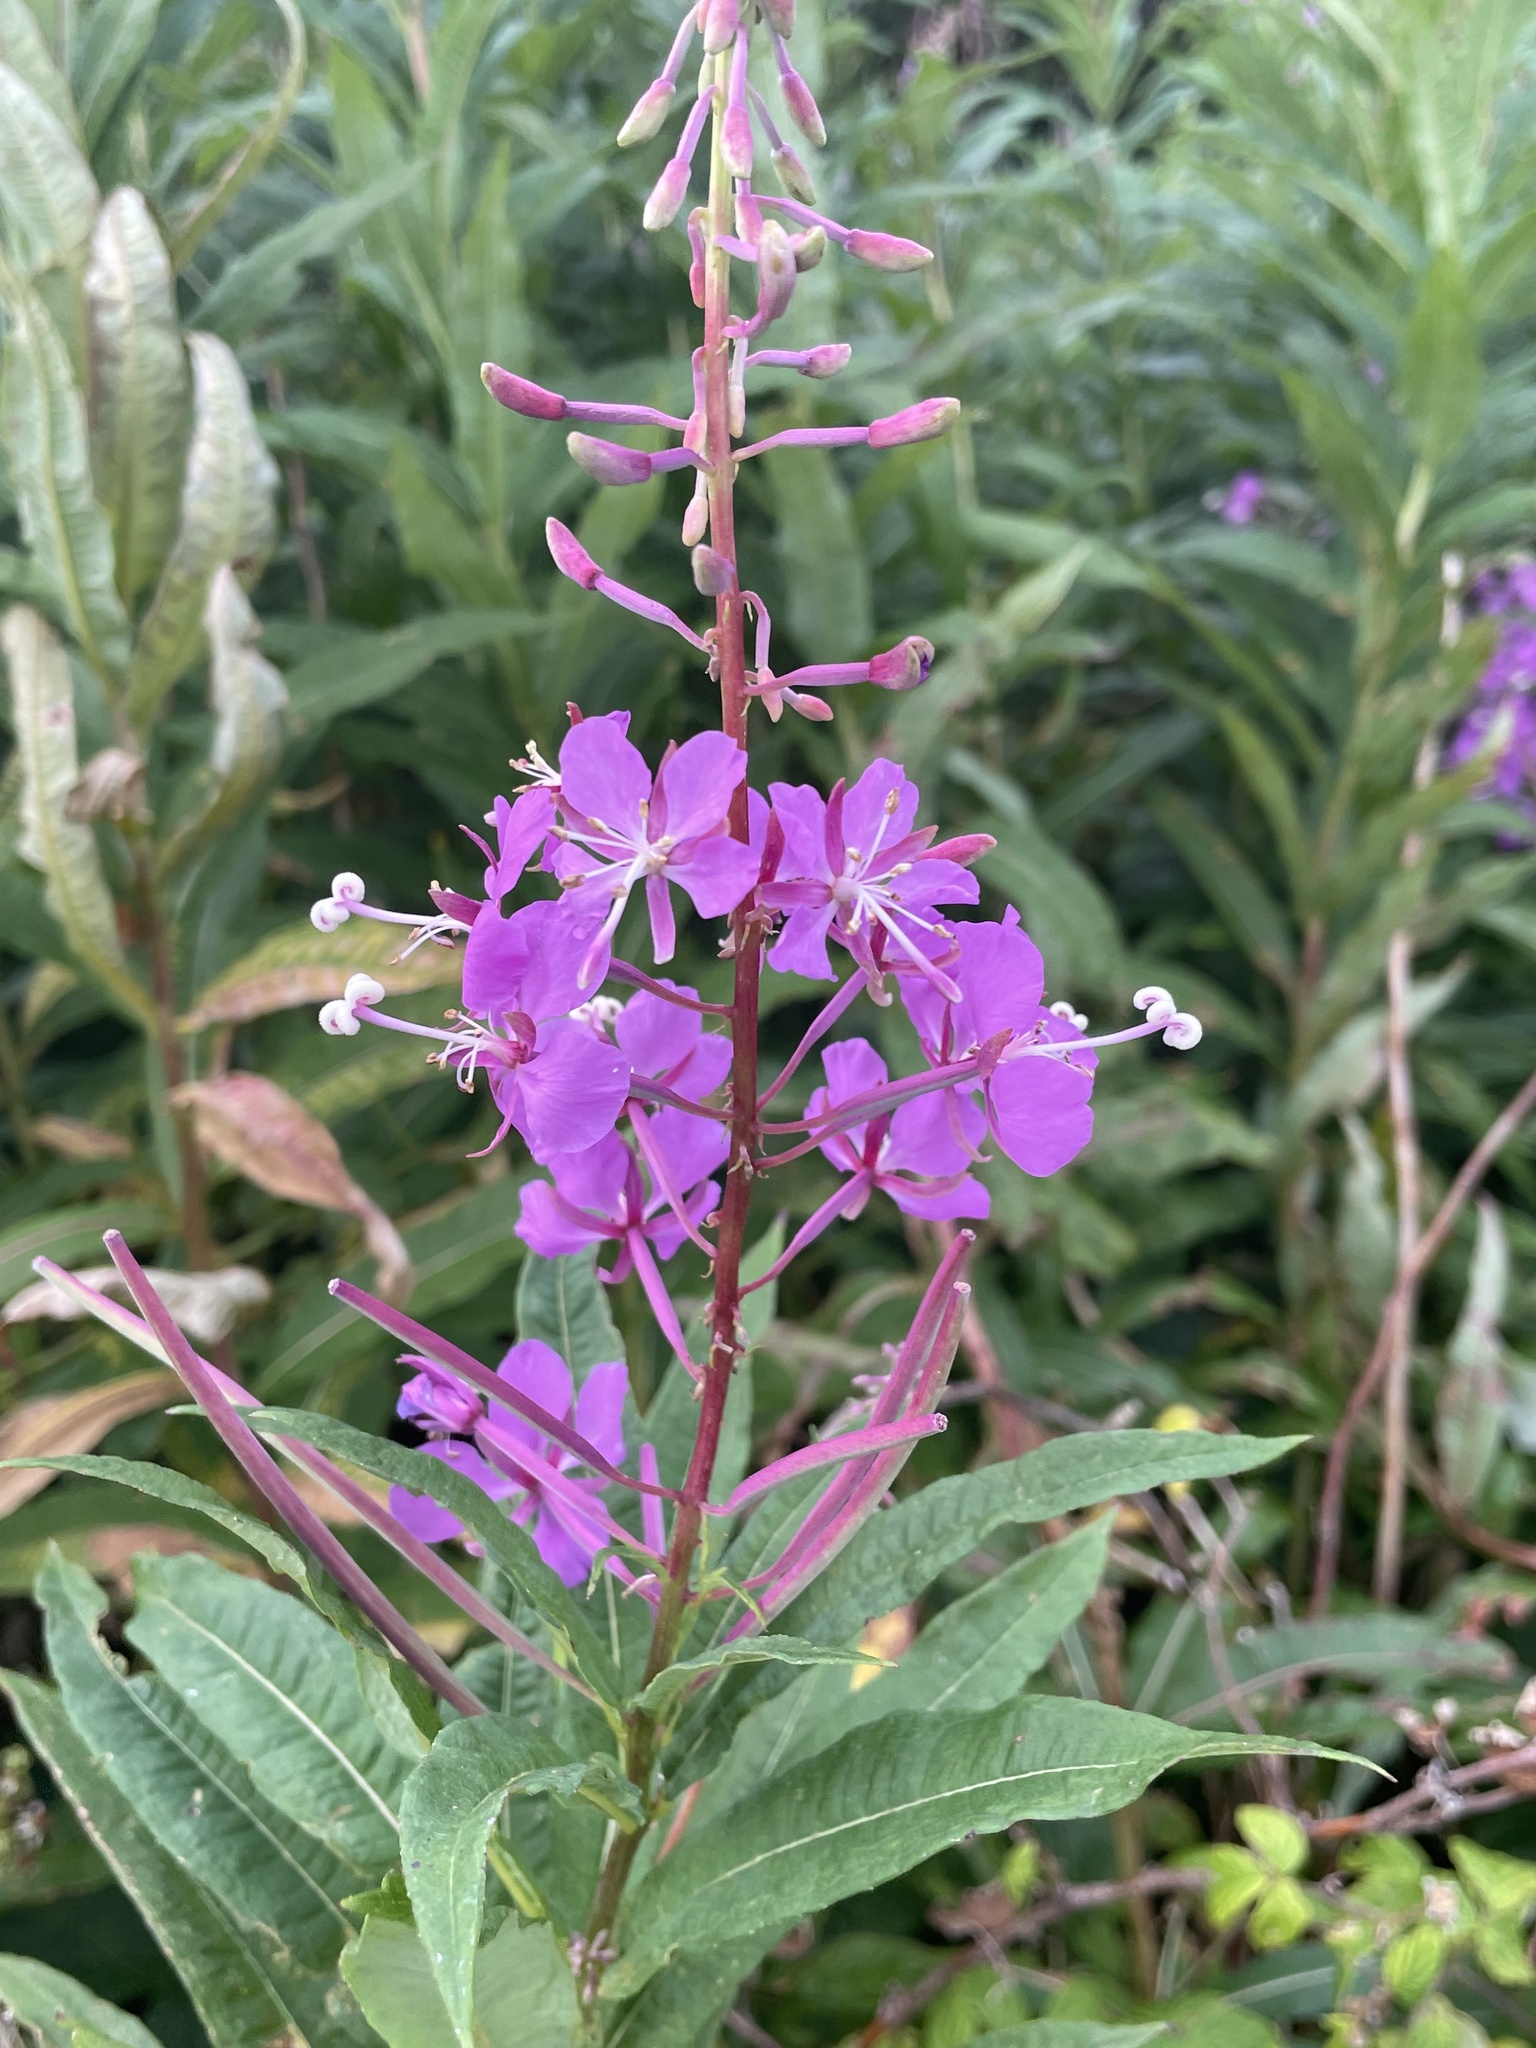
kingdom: Plantae
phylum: Tracheophyta
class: Magnoliopsida
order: Myrtales
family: Onagraceae
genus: Chamaenerion
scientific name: Chamaenerion angustifolium
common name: Fireweed
